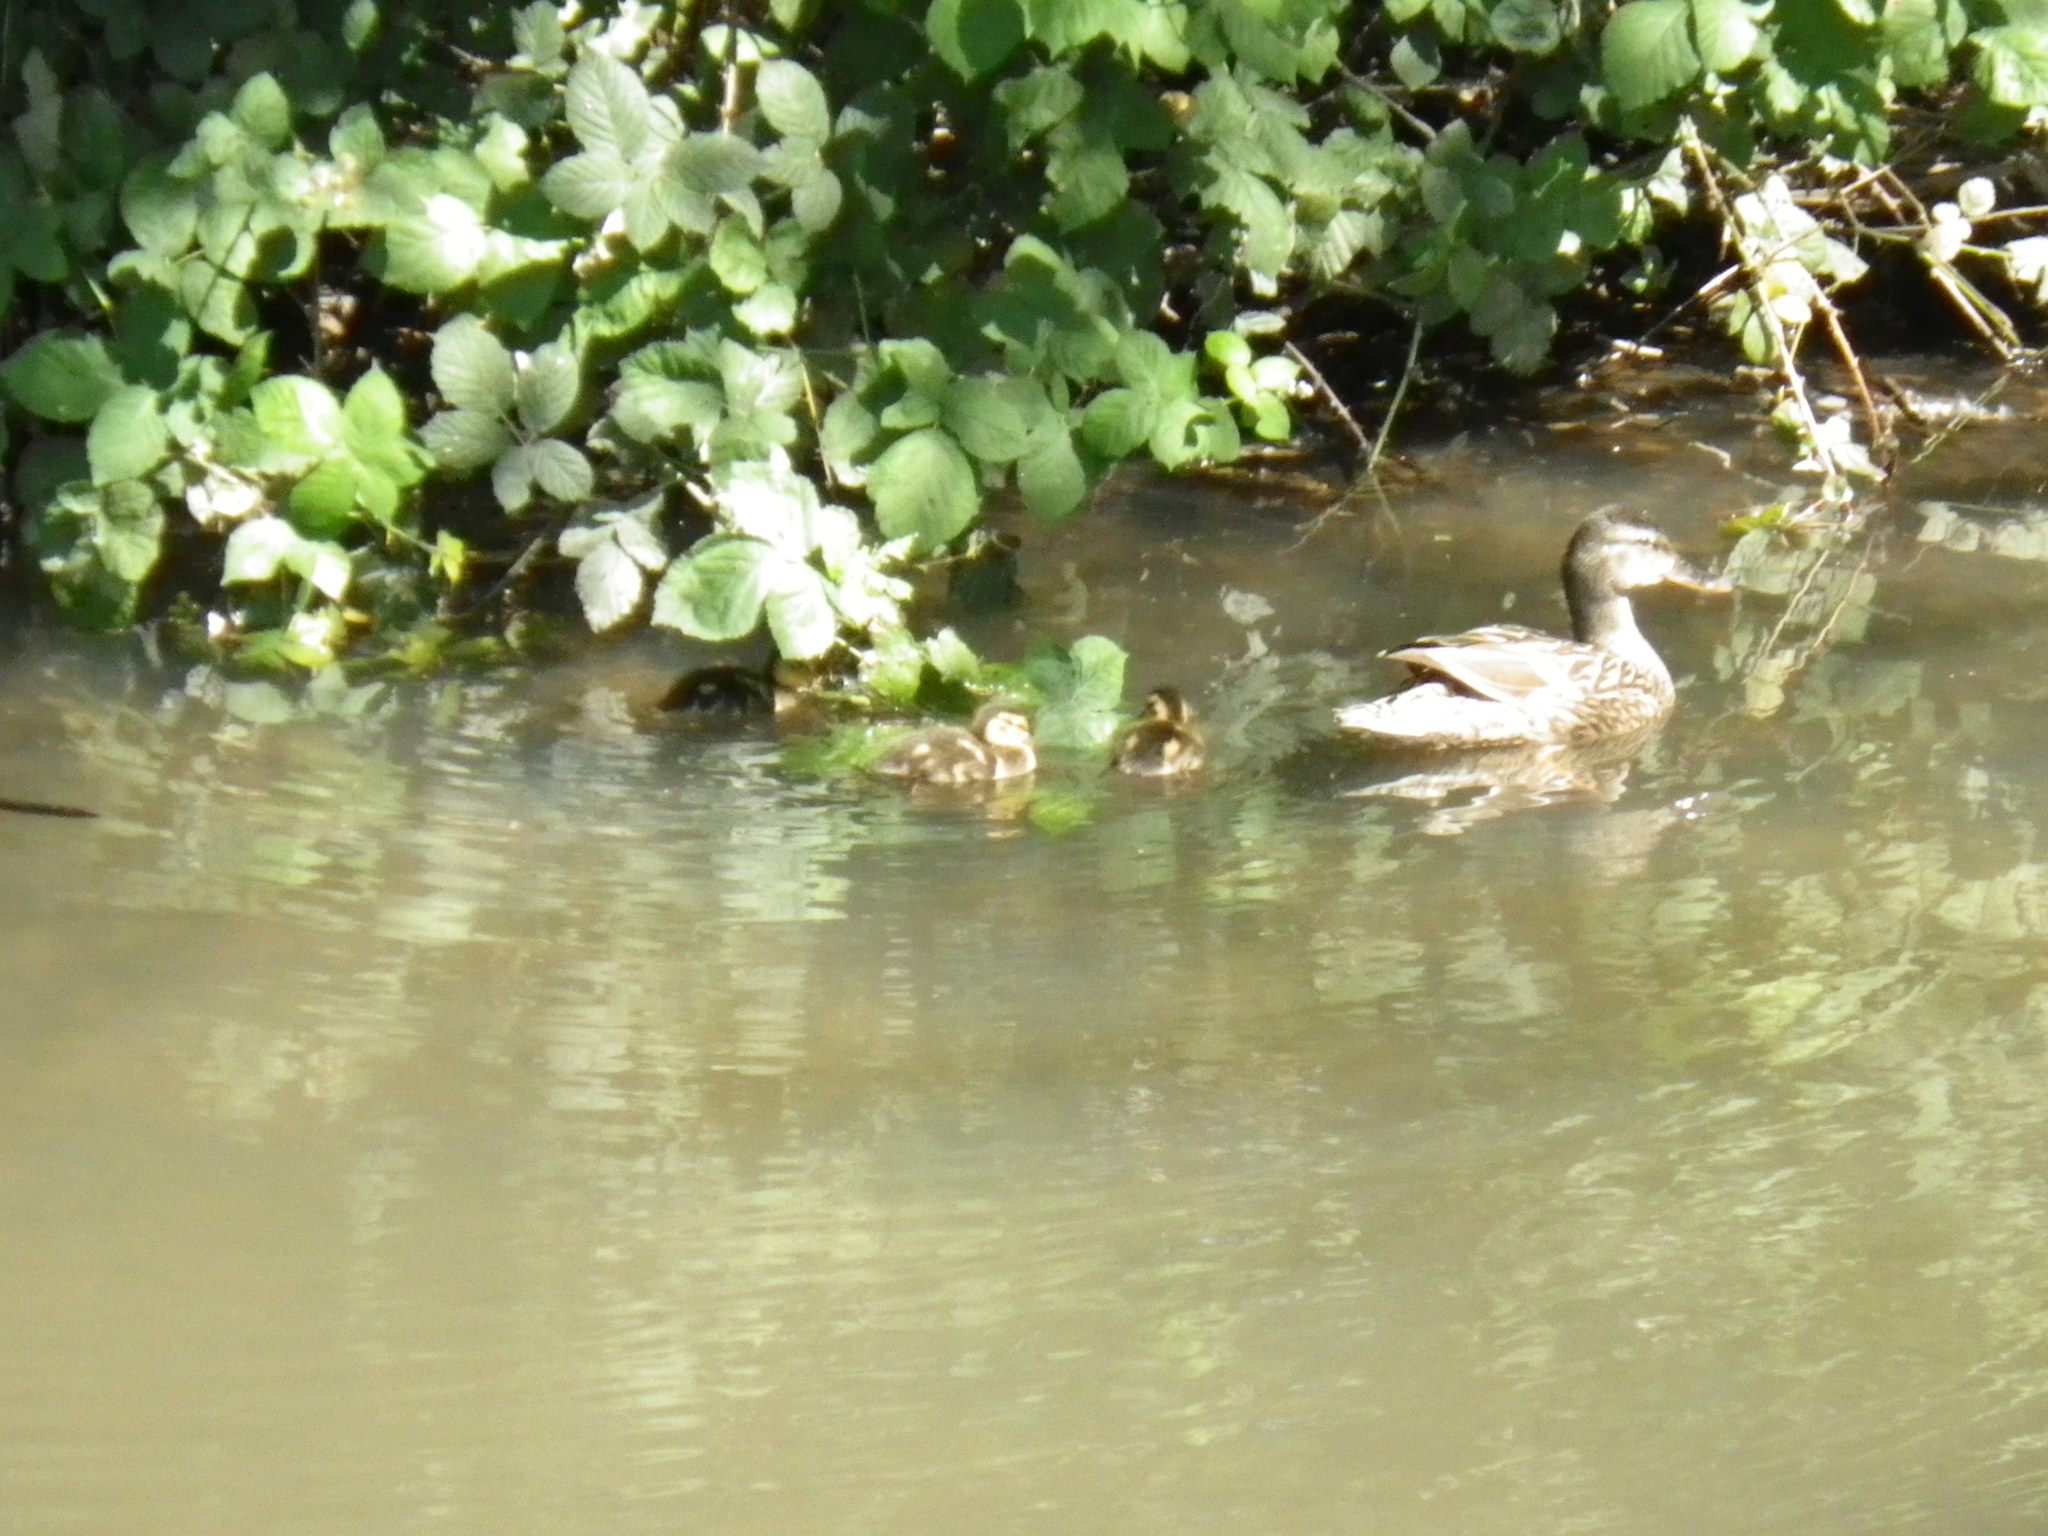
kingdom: Animalia
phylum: Chordata
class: Aves
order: Anseriformes
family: Anatidae
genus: Anas
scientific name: Anas platyrhynchos
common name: Mallard
